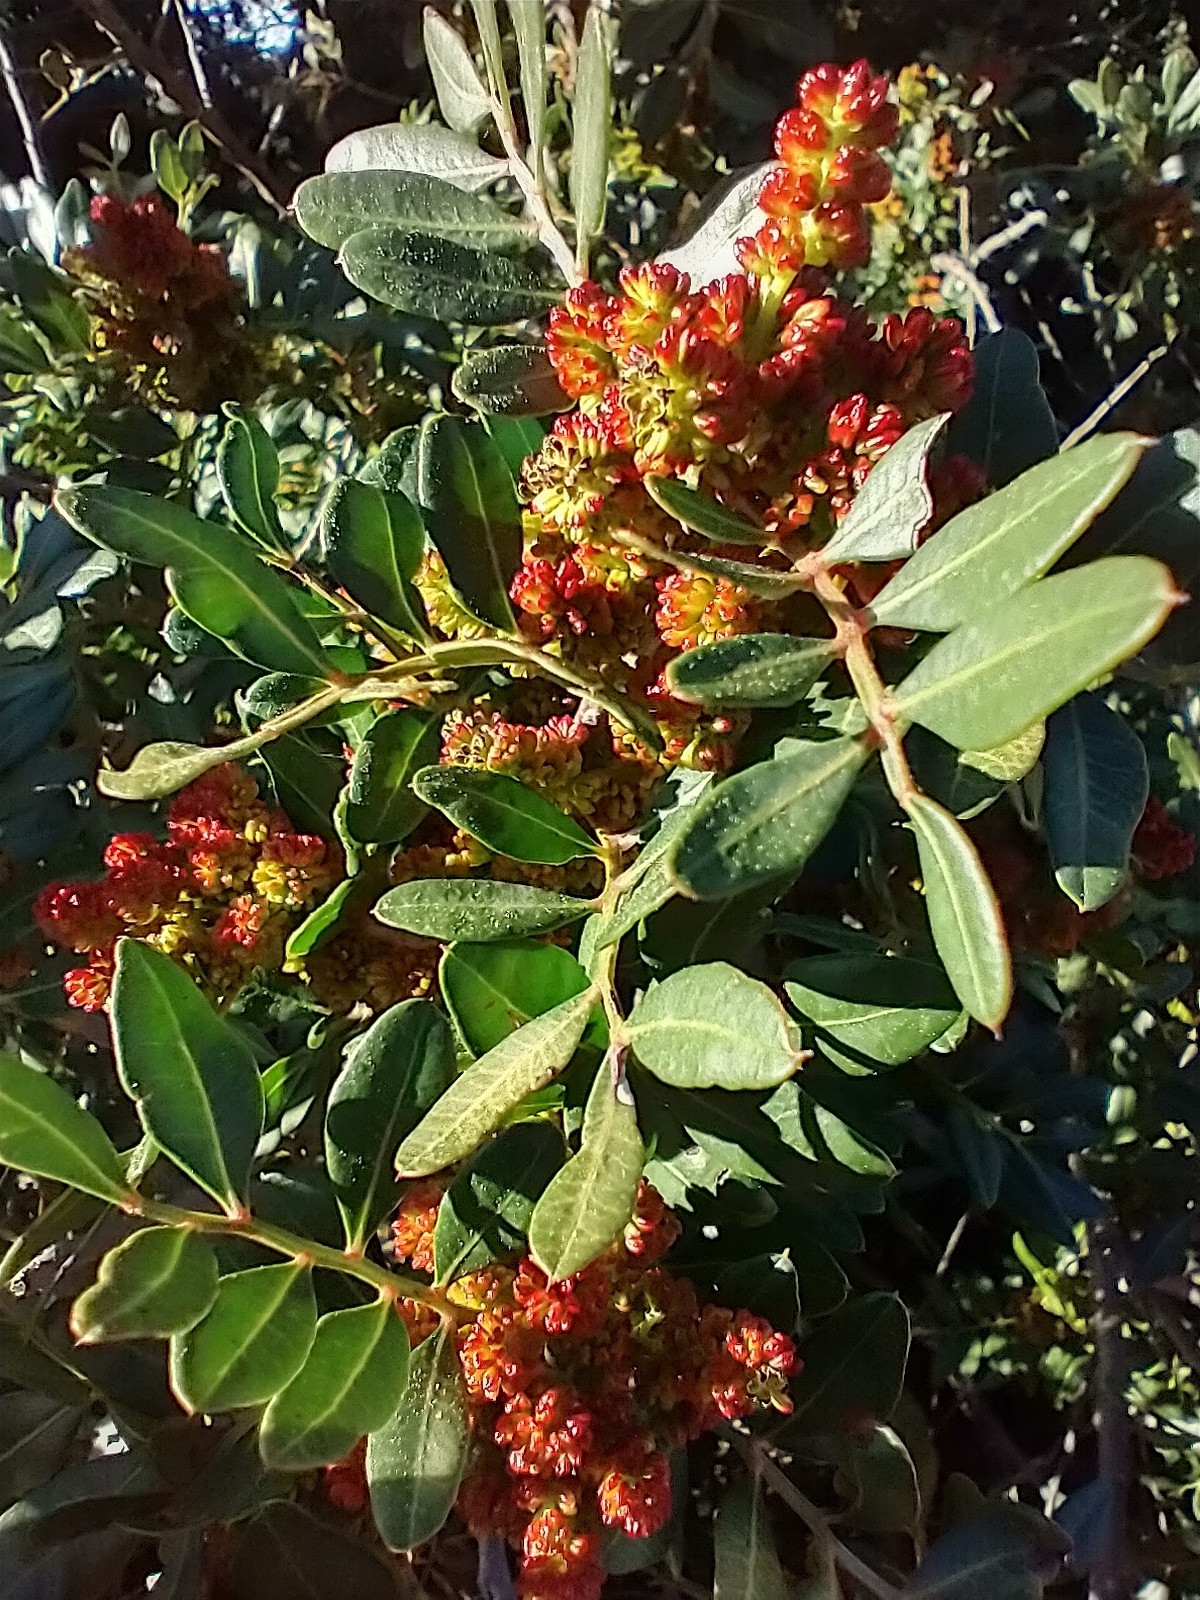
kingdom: Plantae
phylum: Tracheophyta
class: Magnoliopsida
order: Sapindales
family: Anacardiaceae
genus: Pistacia
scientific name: Pistacia lentiscus
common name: Lentisk
